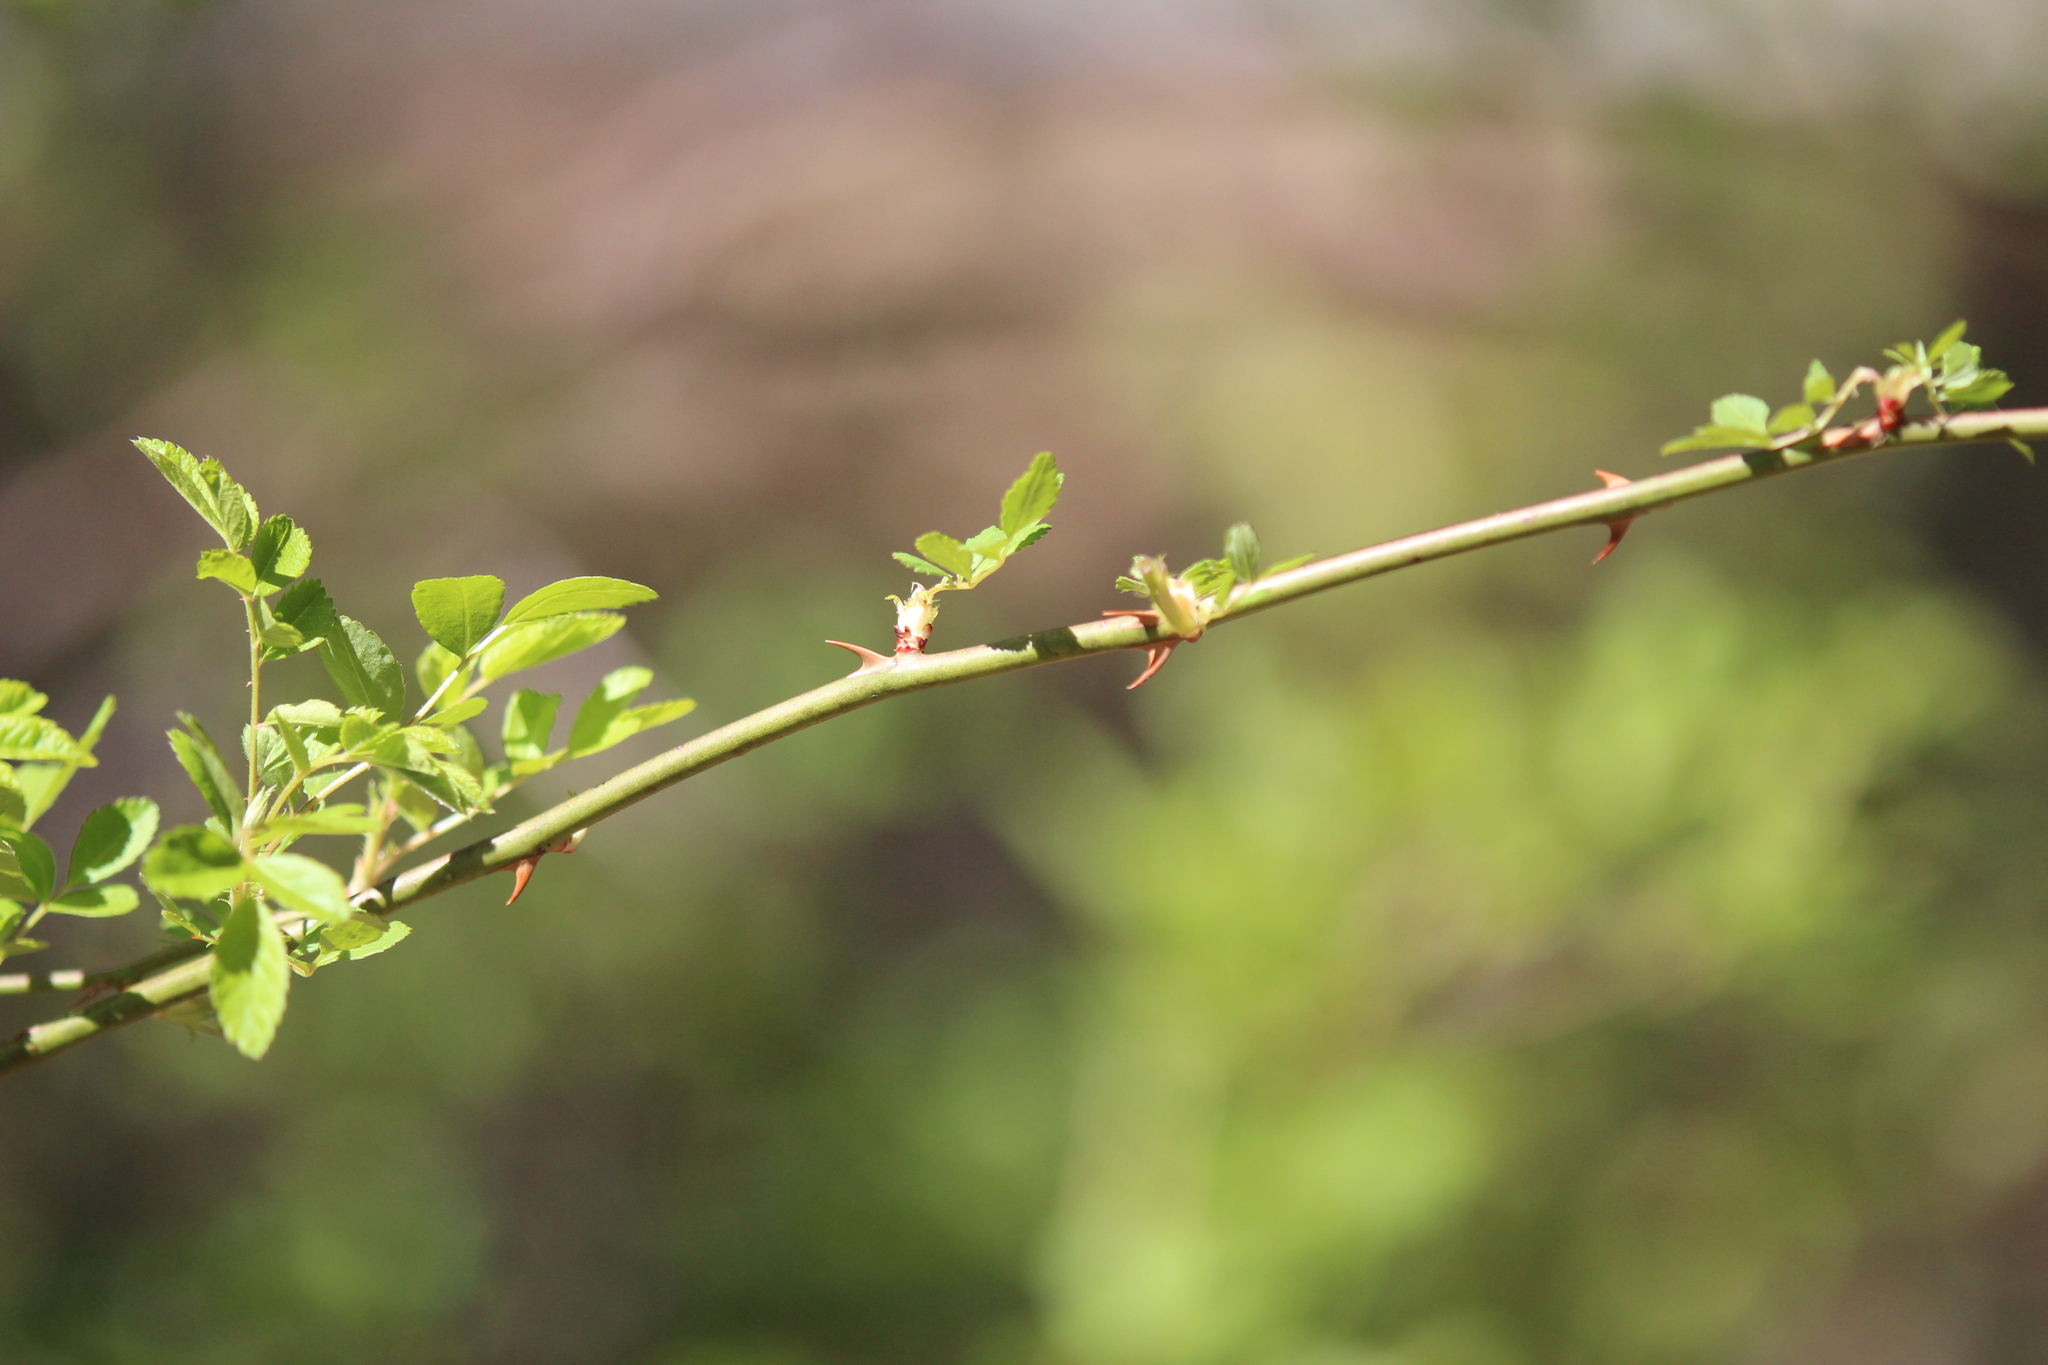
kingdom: Plantae
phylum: Tracheophyta
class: Magnoliopsida
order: Rosales
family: Rosaceae
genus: Rosa
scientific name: Rosa multiflora
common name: Multiflora rose
